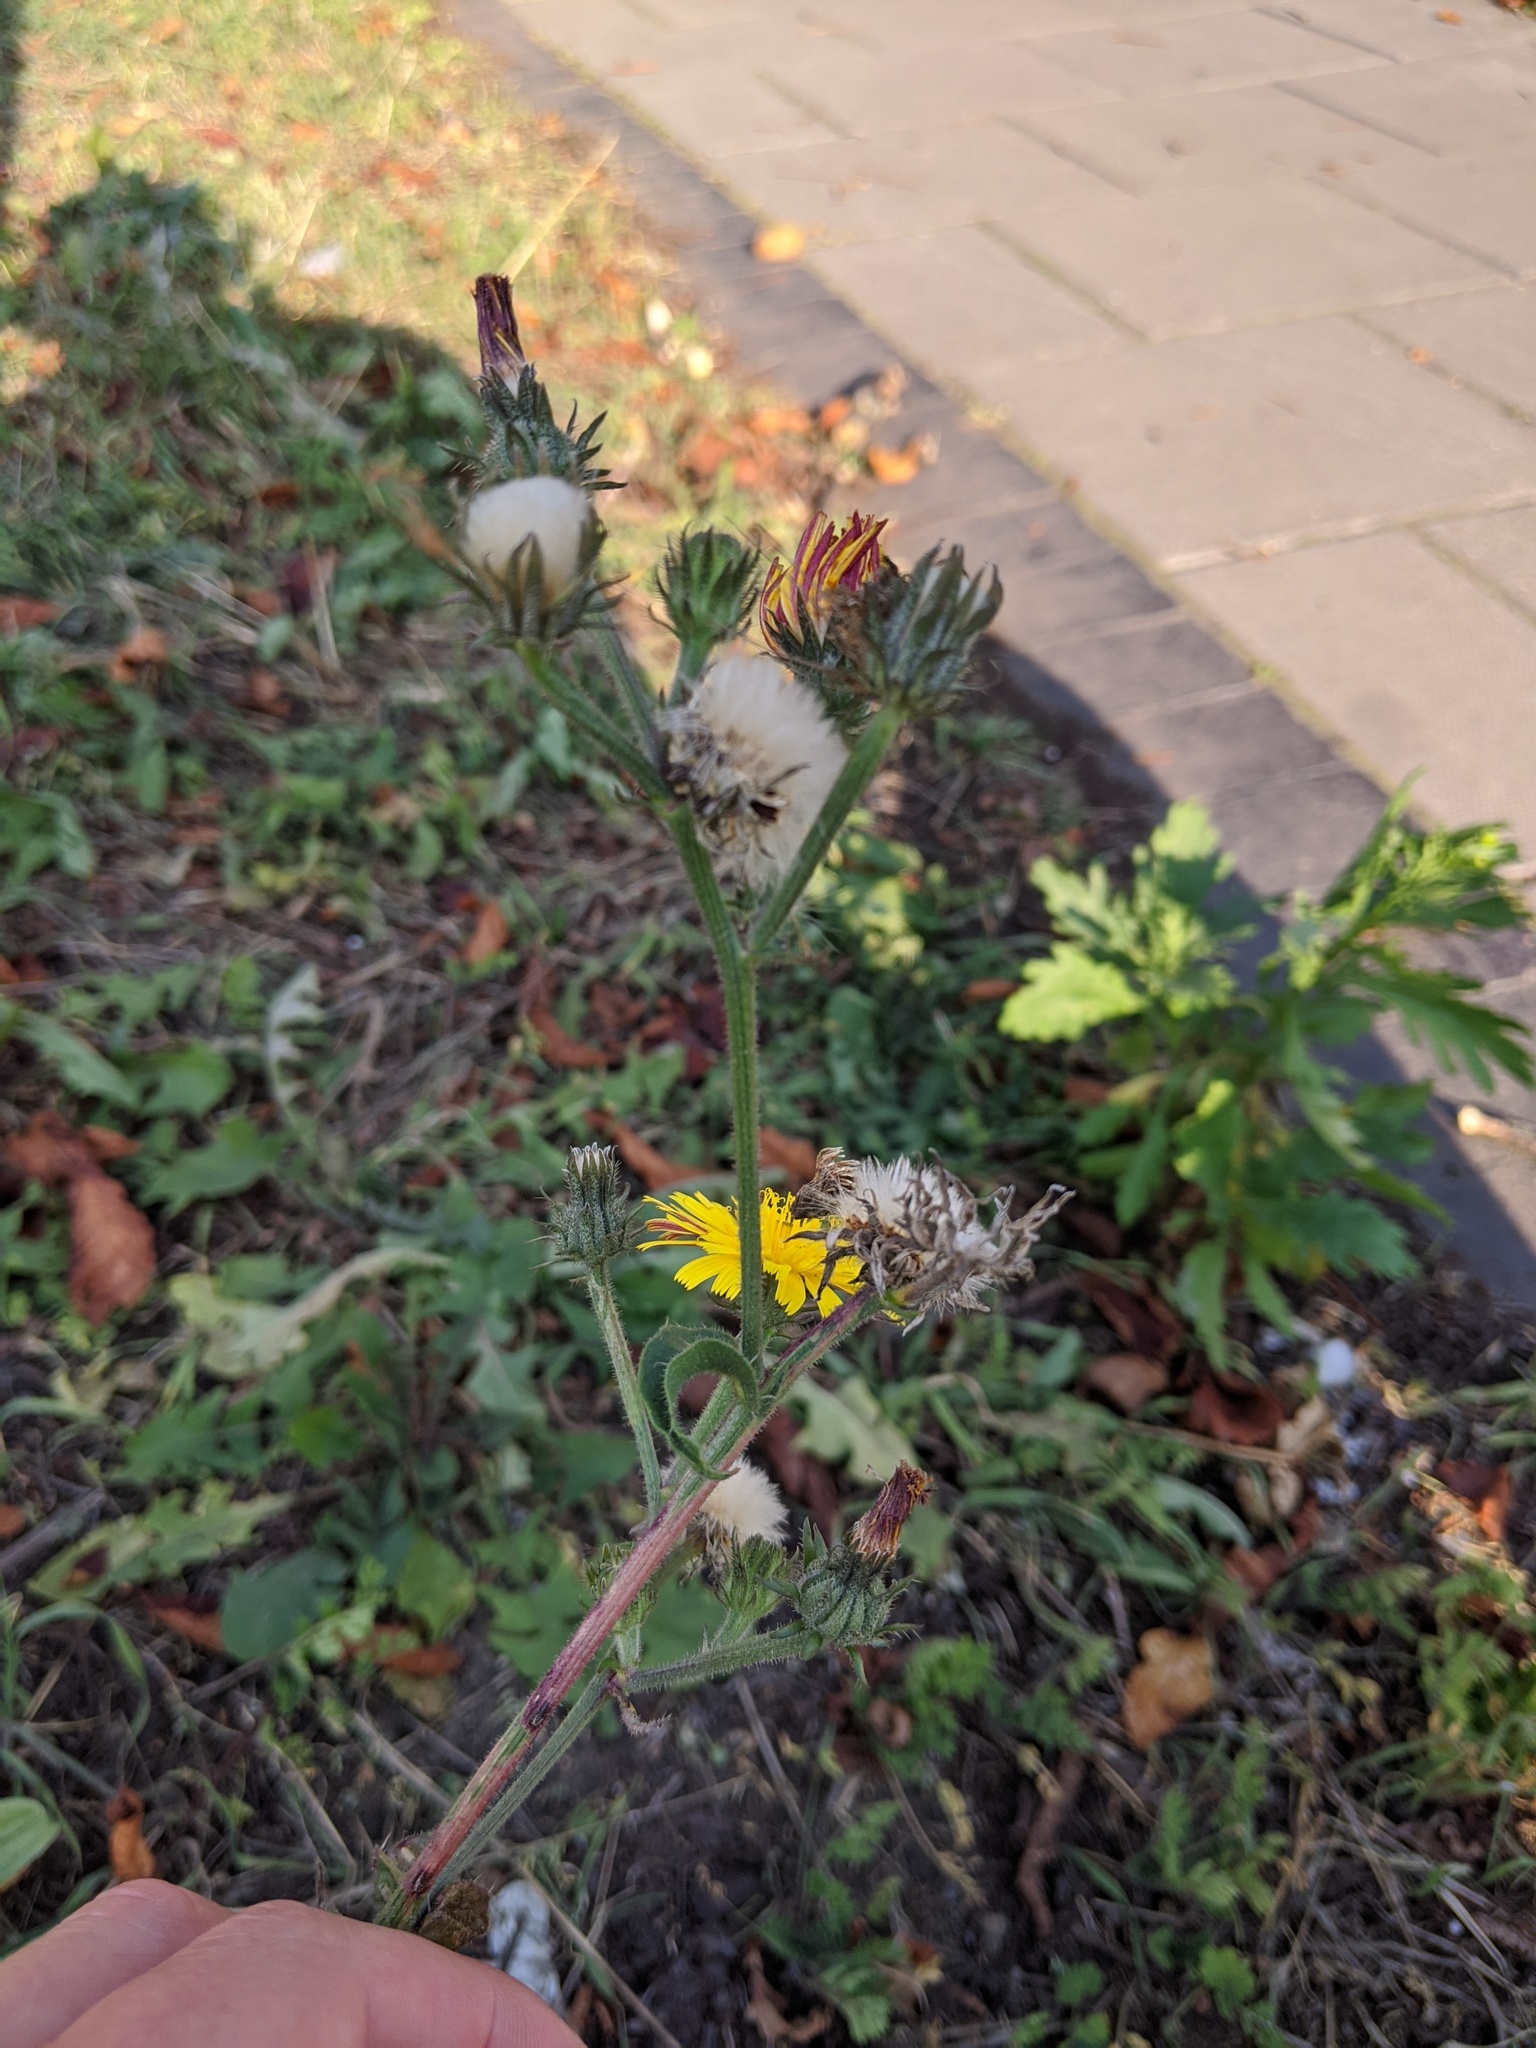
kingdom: Plantae
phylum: Tracheophyta
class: Magnoliopsida
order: Asterales
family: Asteraceae
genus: Picris
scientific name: Picris hieracioides
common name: Hawkweed oxtongue
